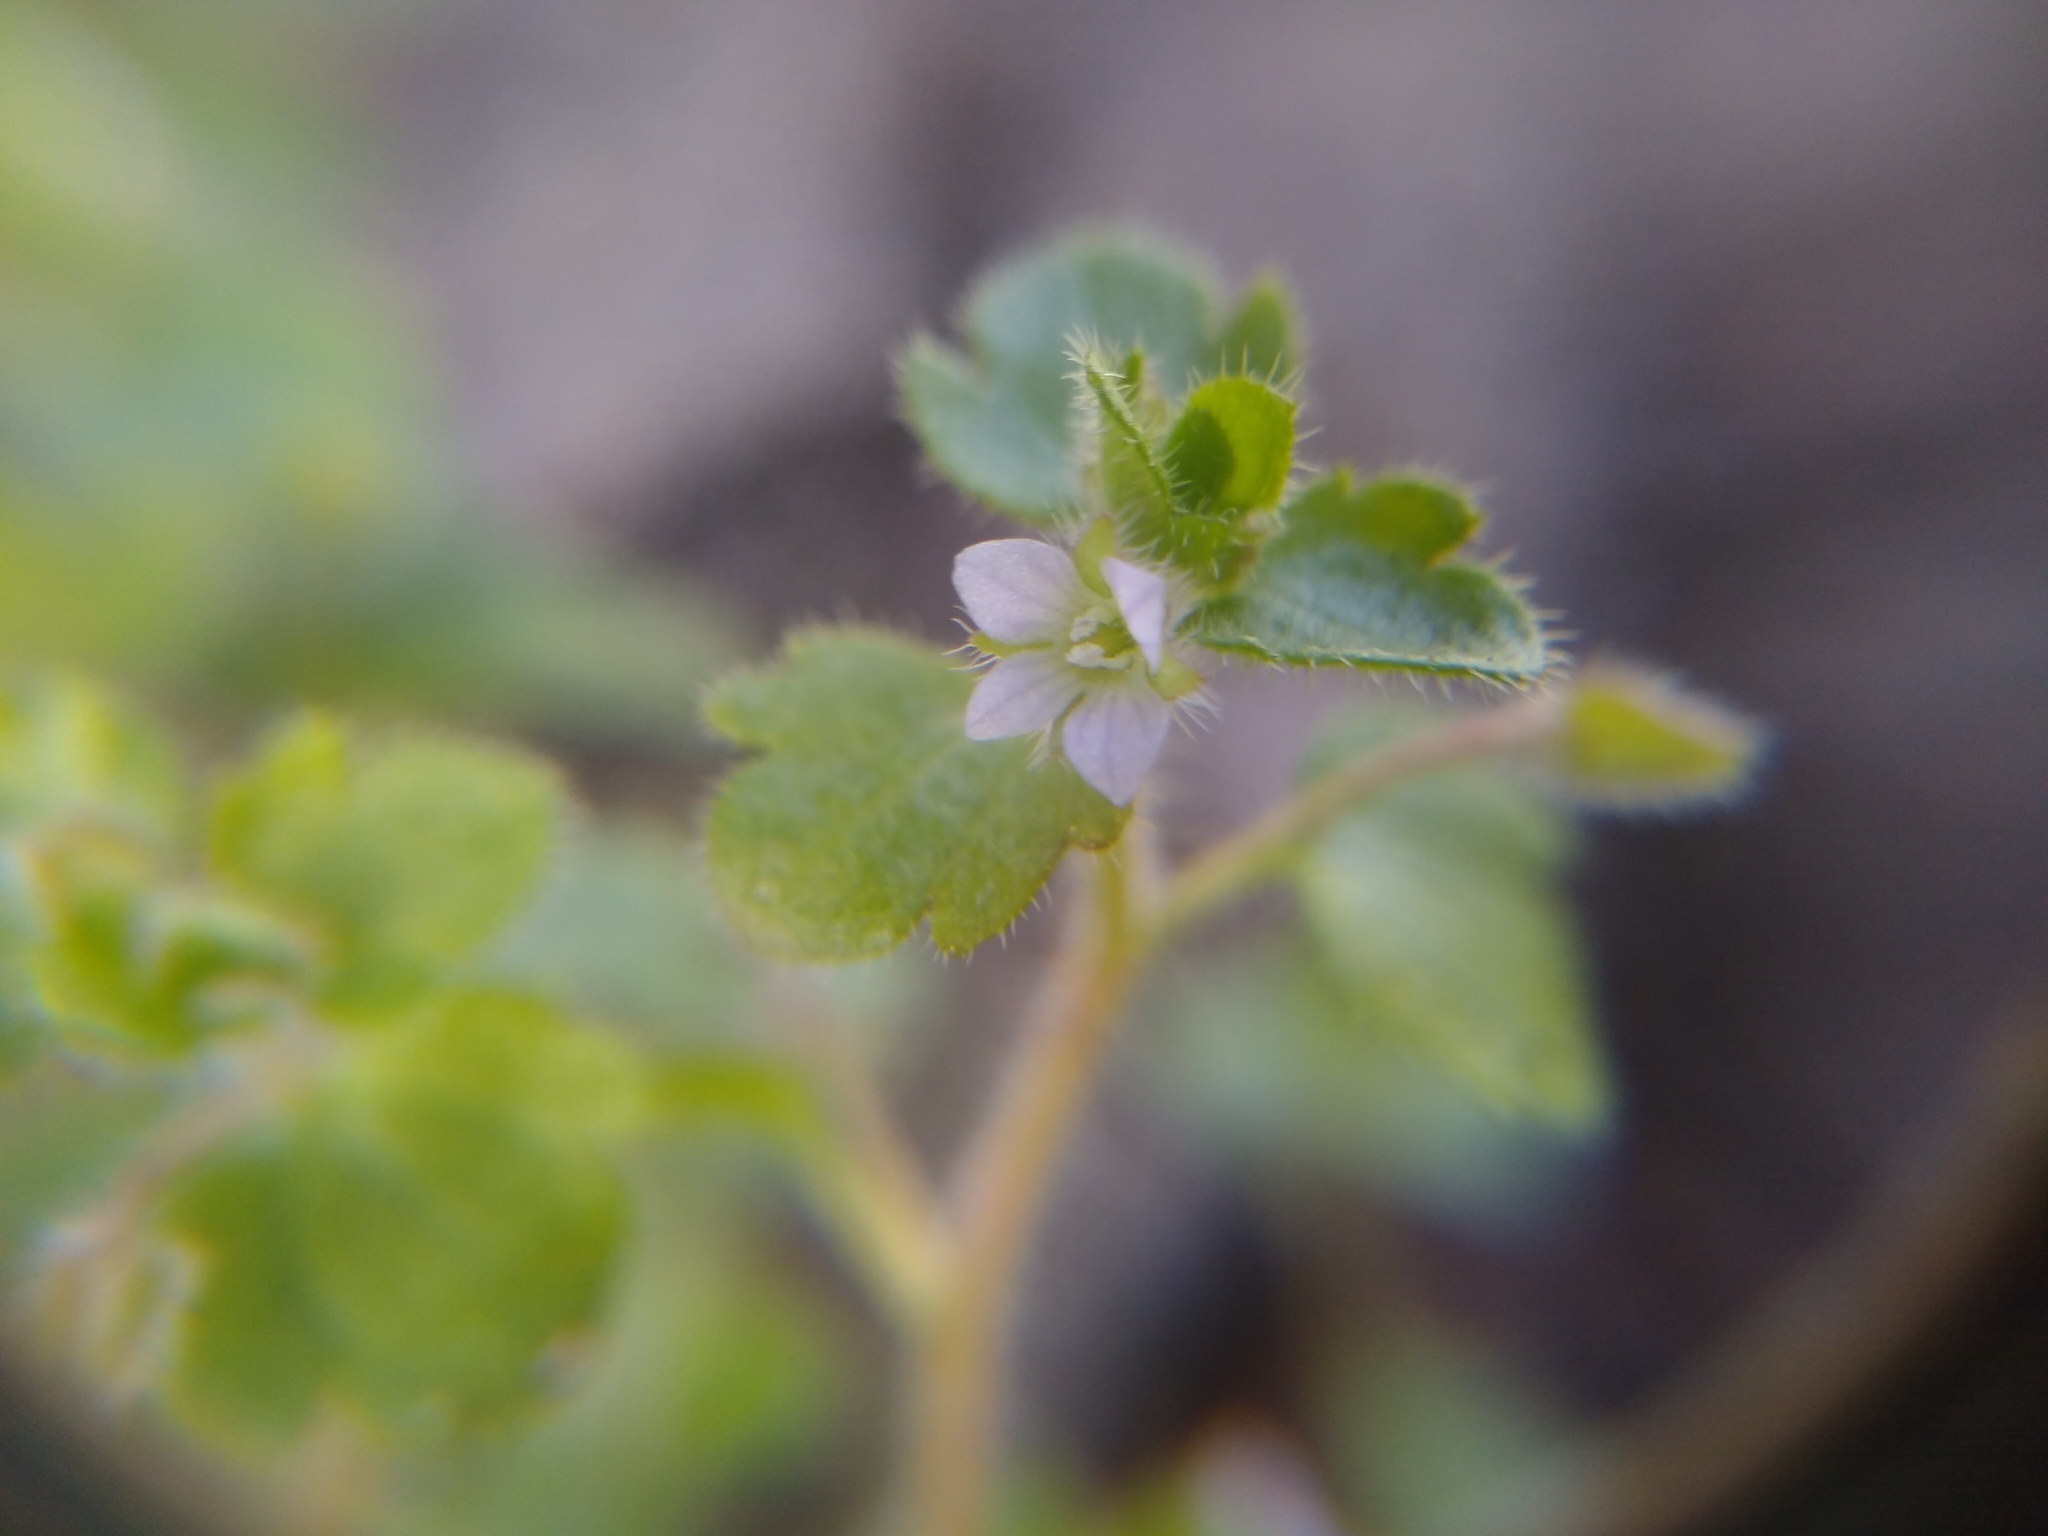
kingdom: Plantae
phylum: Tracheophyta
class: Magnoliopsida
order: Lamiales
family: Plantaginaceae
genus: Veronica
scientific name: Veronica sublobata
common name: False ivy-leaved speedwell
